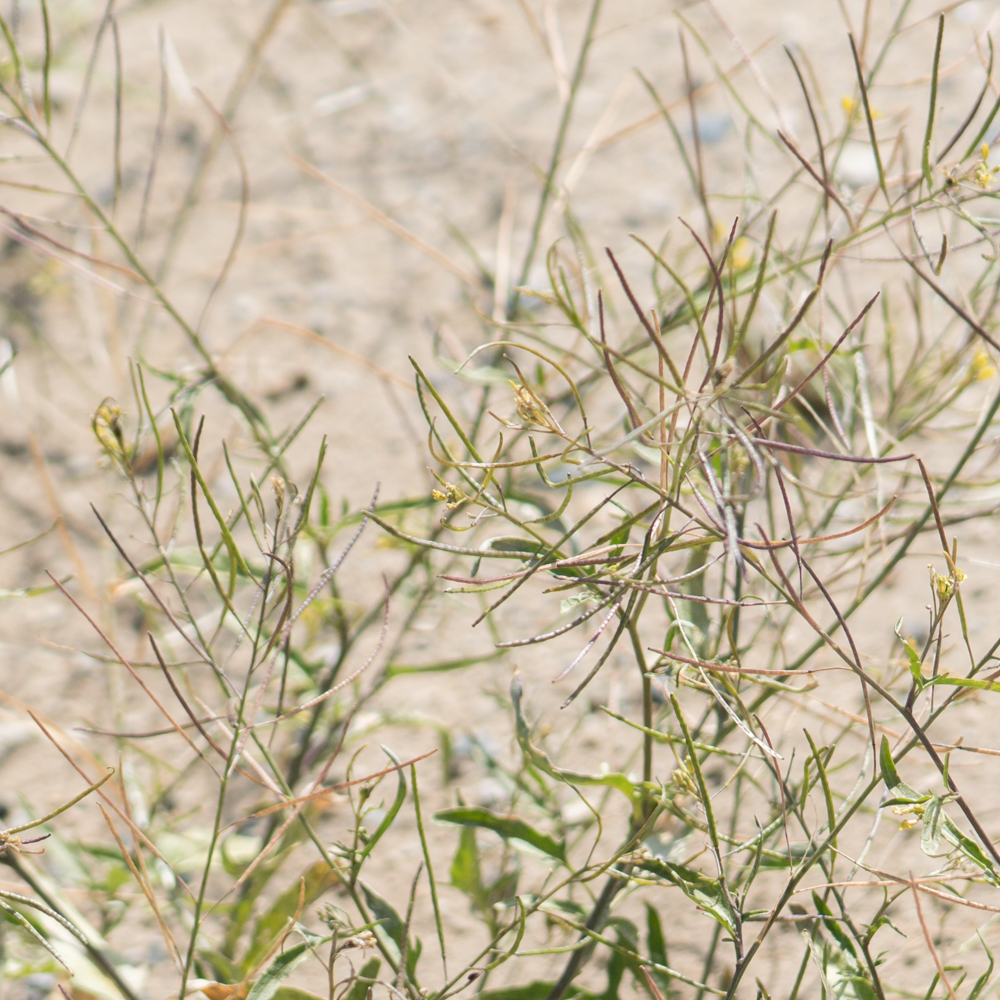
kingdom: Plantae
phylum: Tracheophyta
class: Magnoliopsida
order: Brassicales
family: Brassicaceae
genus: Sisymbrium
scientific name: Sisymbrium irio
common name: London rocket
